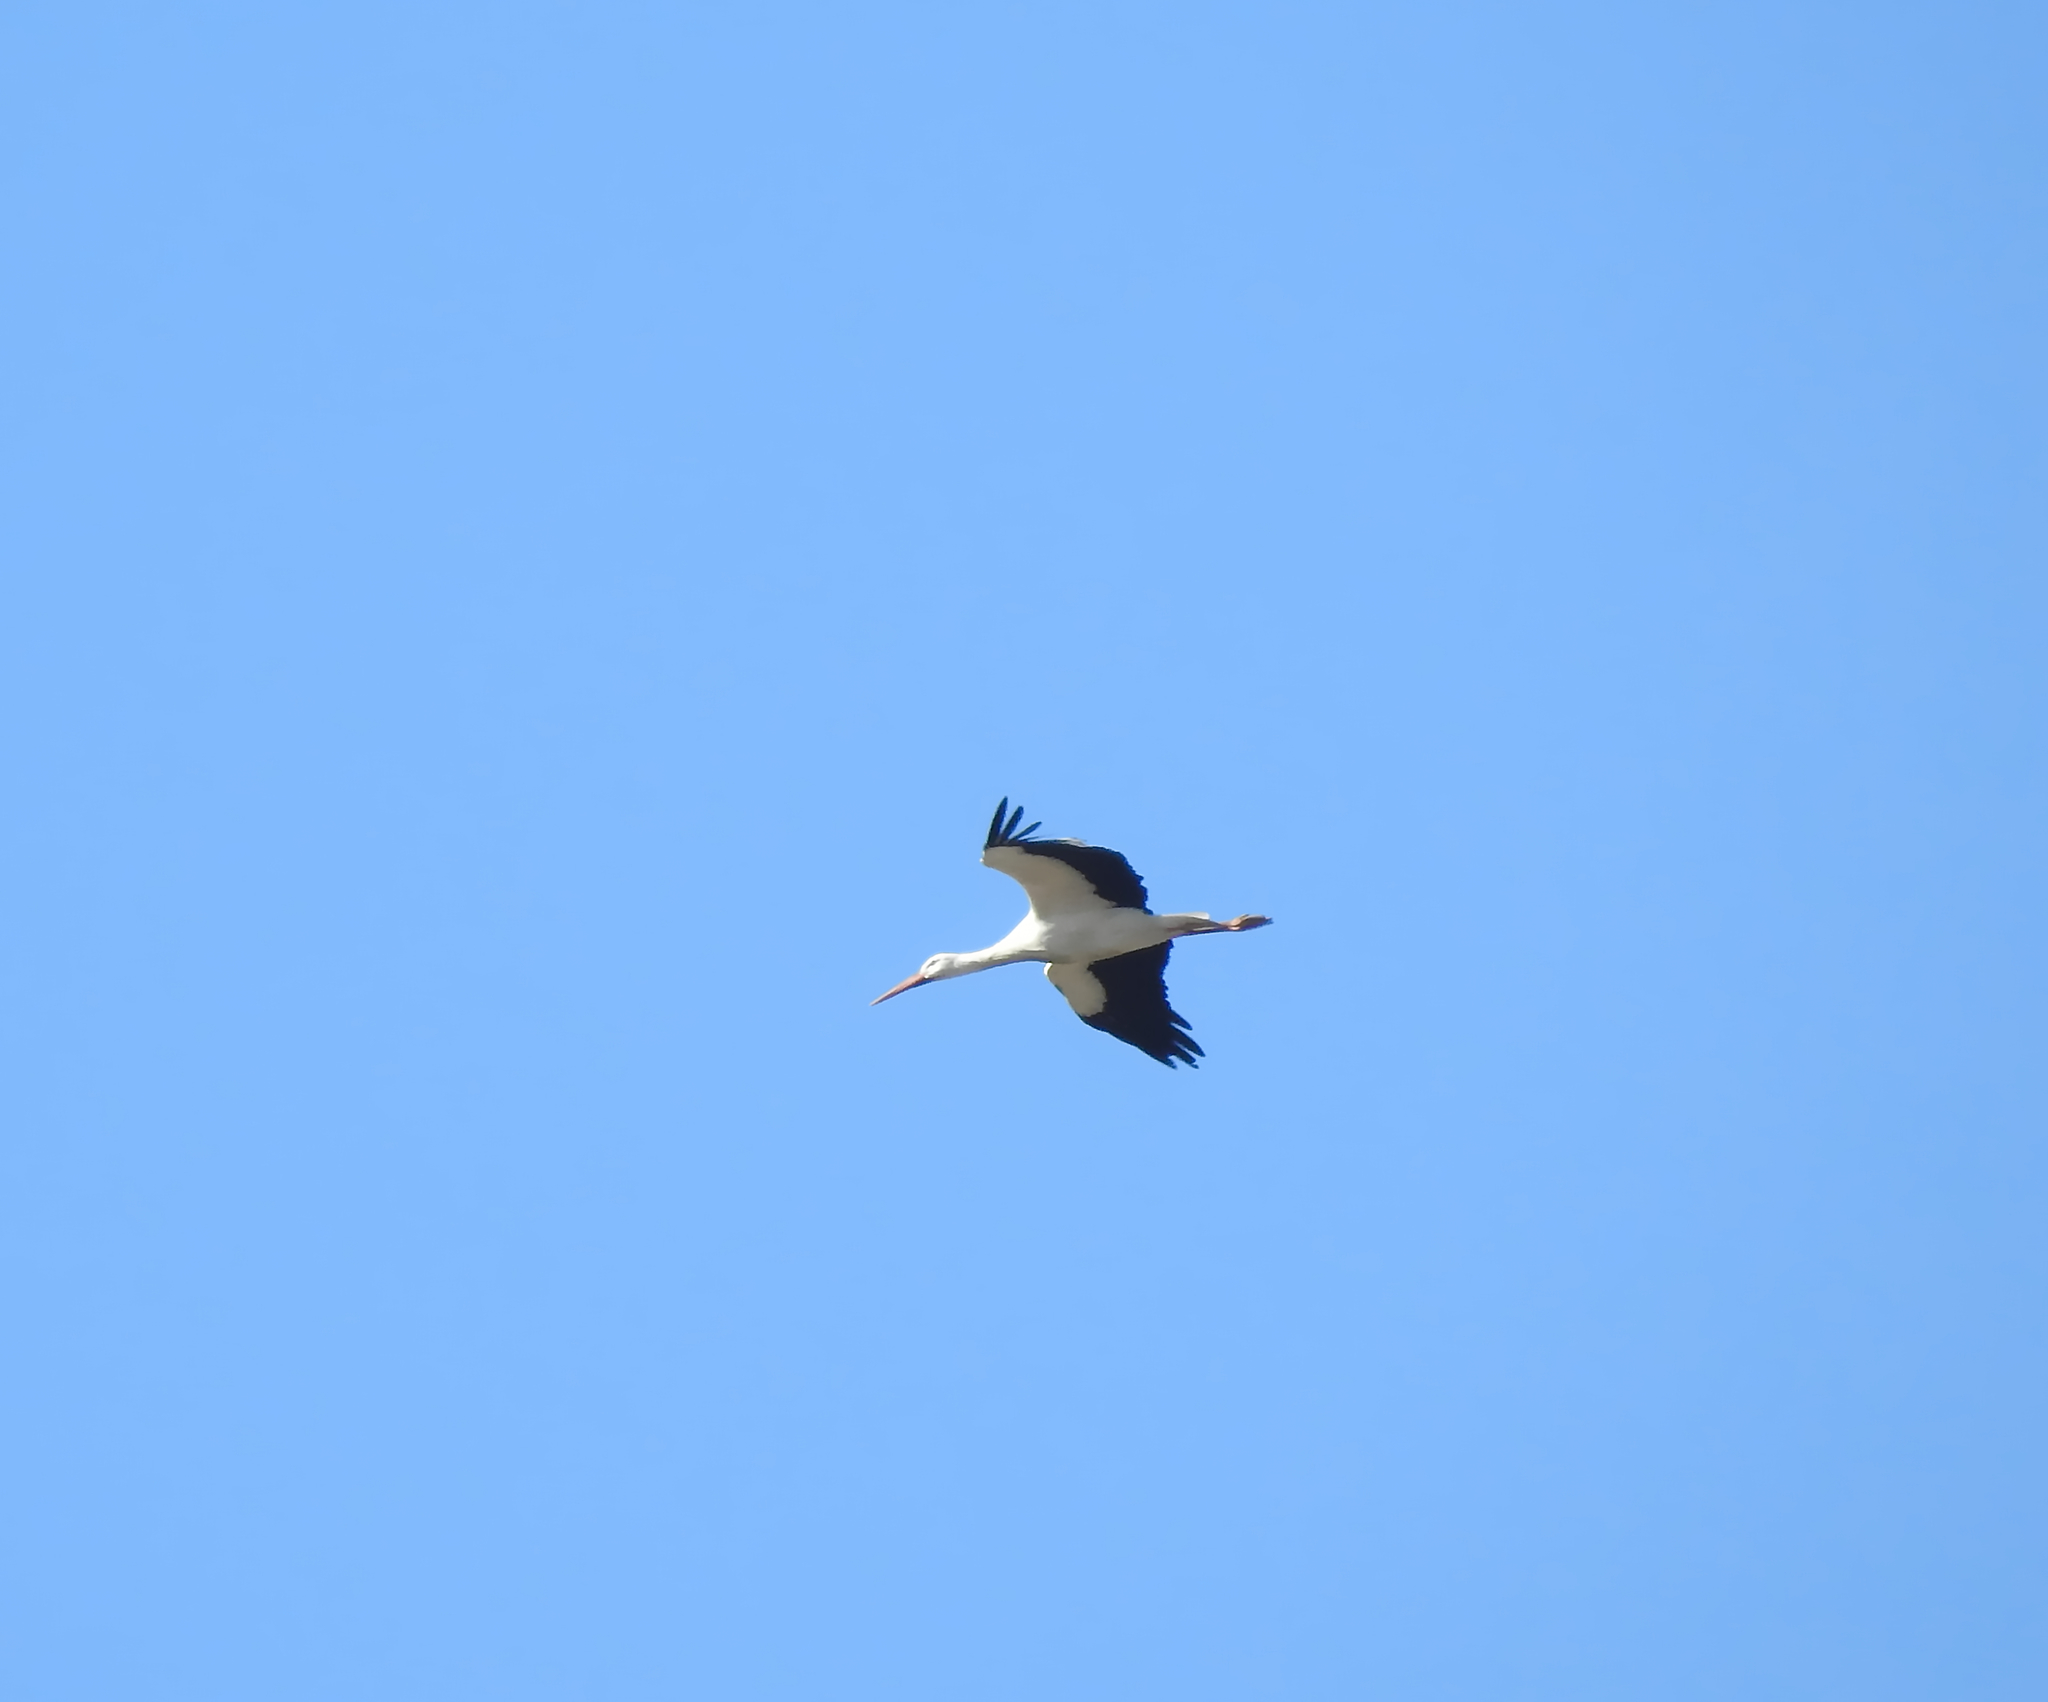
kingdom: Animalia
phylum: Chordata
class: Aves
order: Ciconiiformes
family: Ciconiidae
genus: Ciconia
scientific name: Ciconia ciconia
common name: White stork
